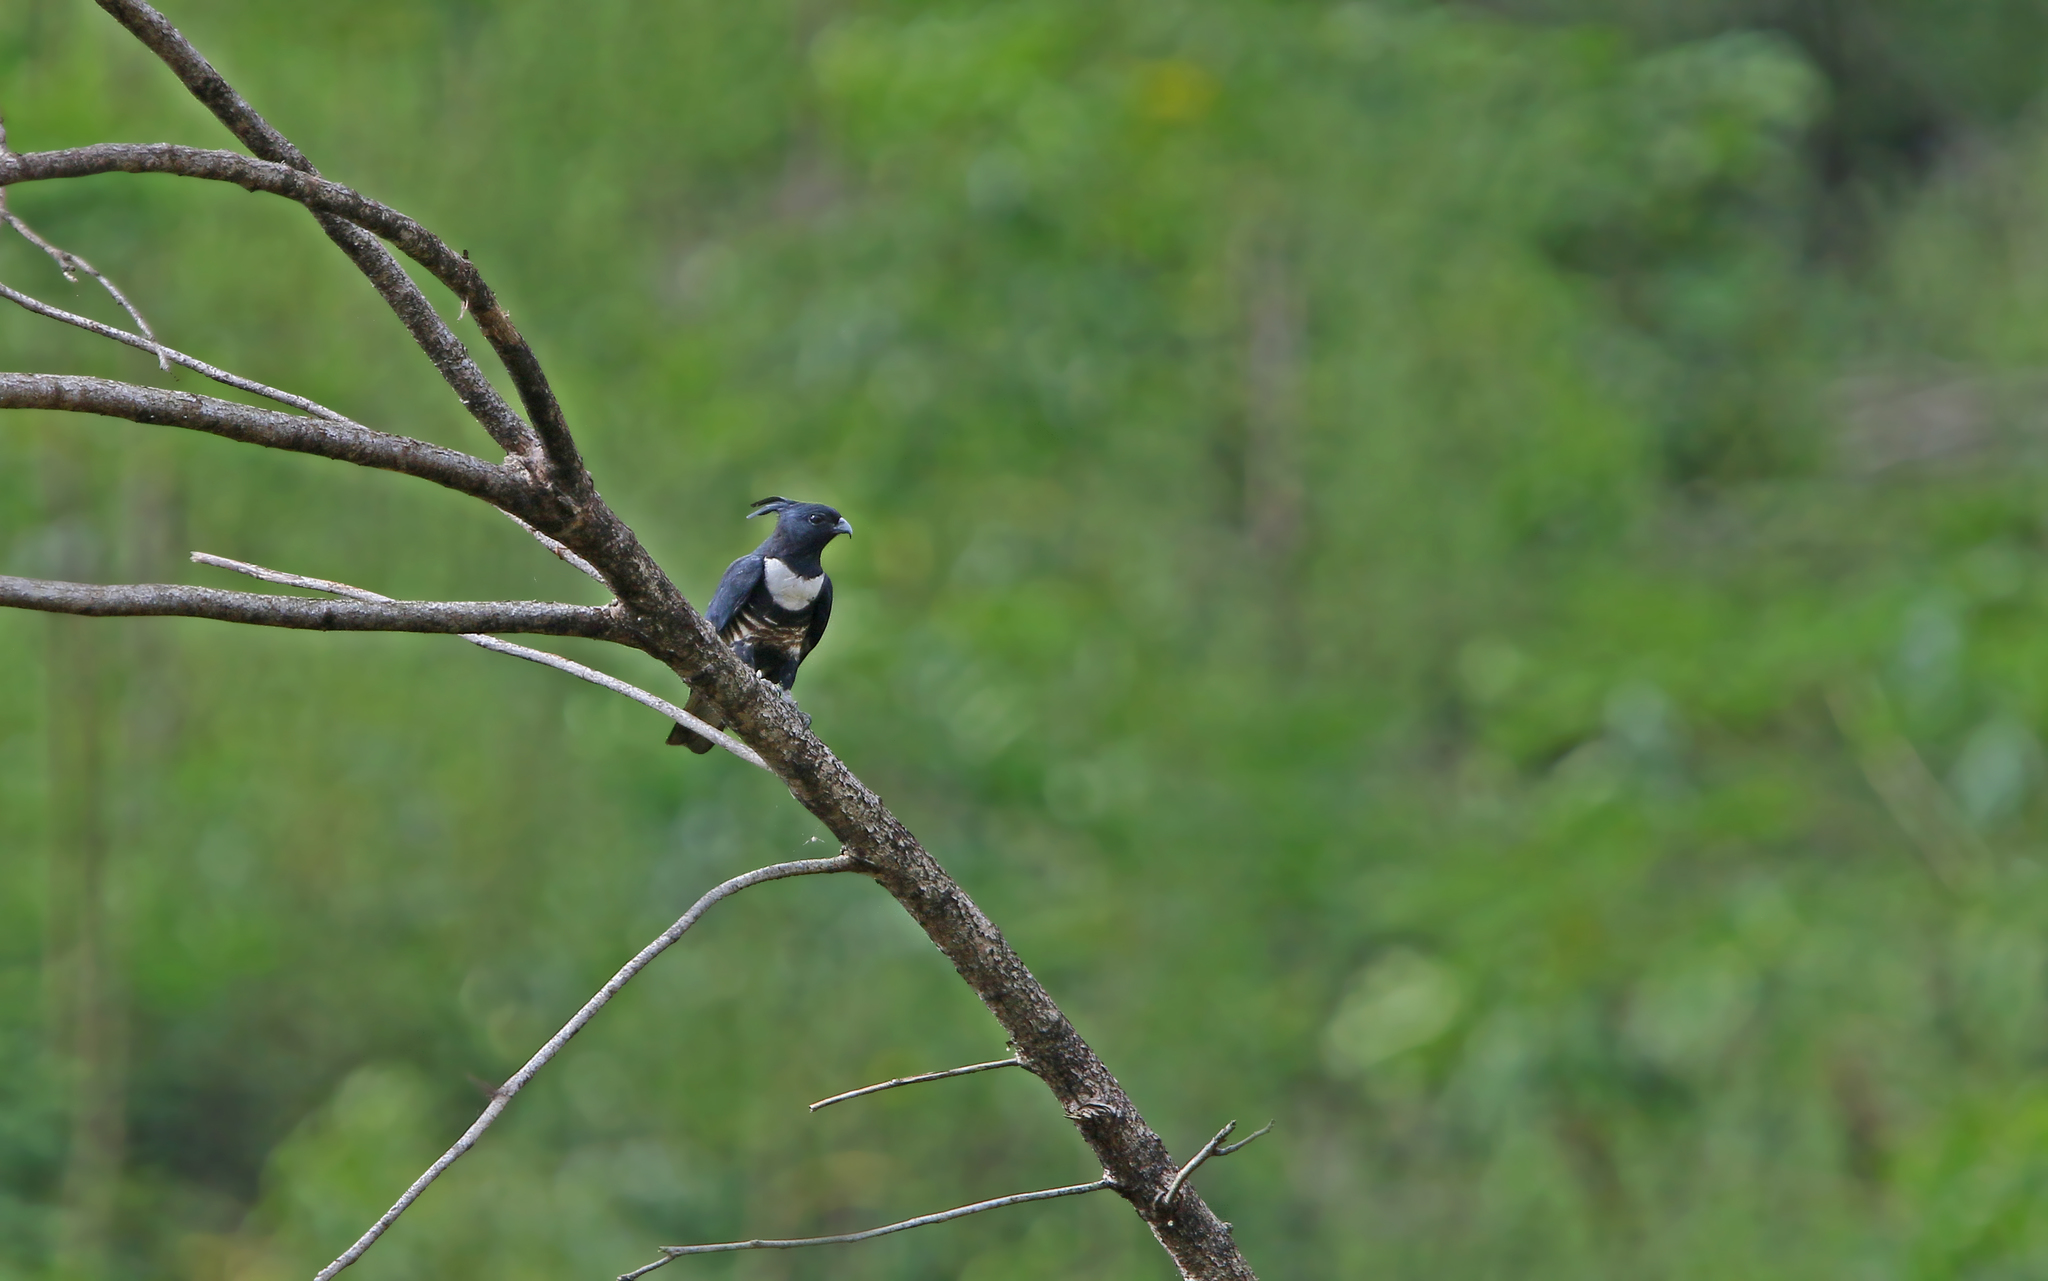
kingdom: Animalia
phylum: Chordata
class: Aves
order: Accipitriformes
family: Accipitridae
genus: Aviceda
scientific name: Aviceda leuphotes
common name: Black baza
